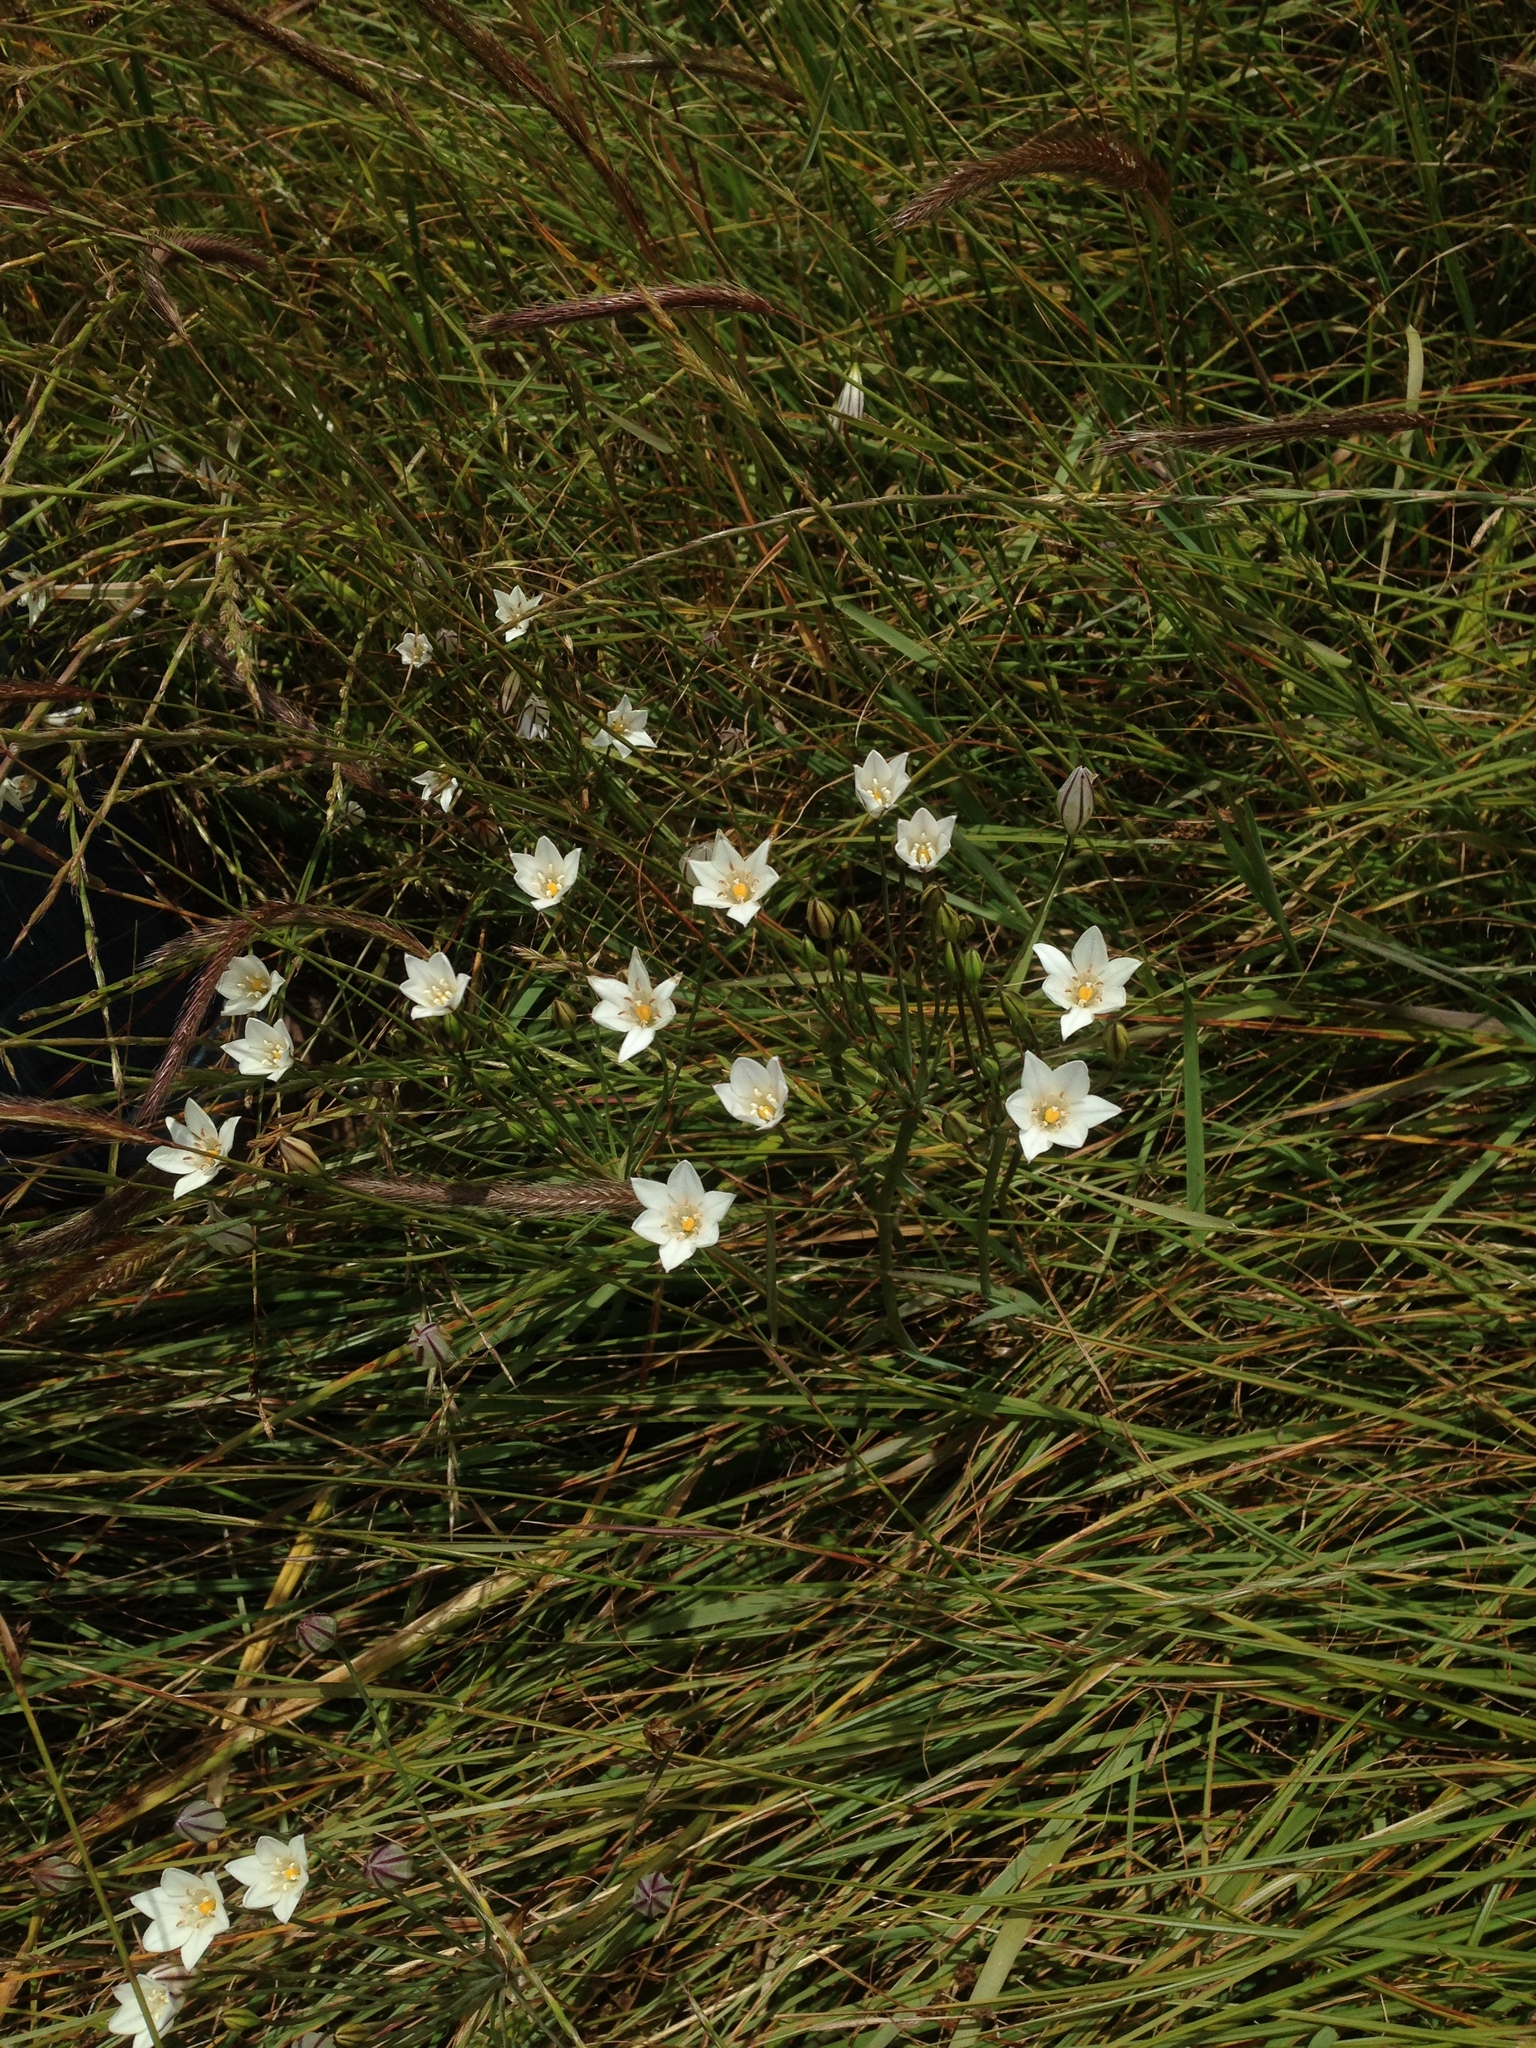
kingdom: Plantae
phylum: Tracheophyta
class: Liliopsida
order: Asparagales
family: Asparagaceae
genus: Triteleia
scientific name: Triteleia peduncularis
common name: Long-ray brodiaea
